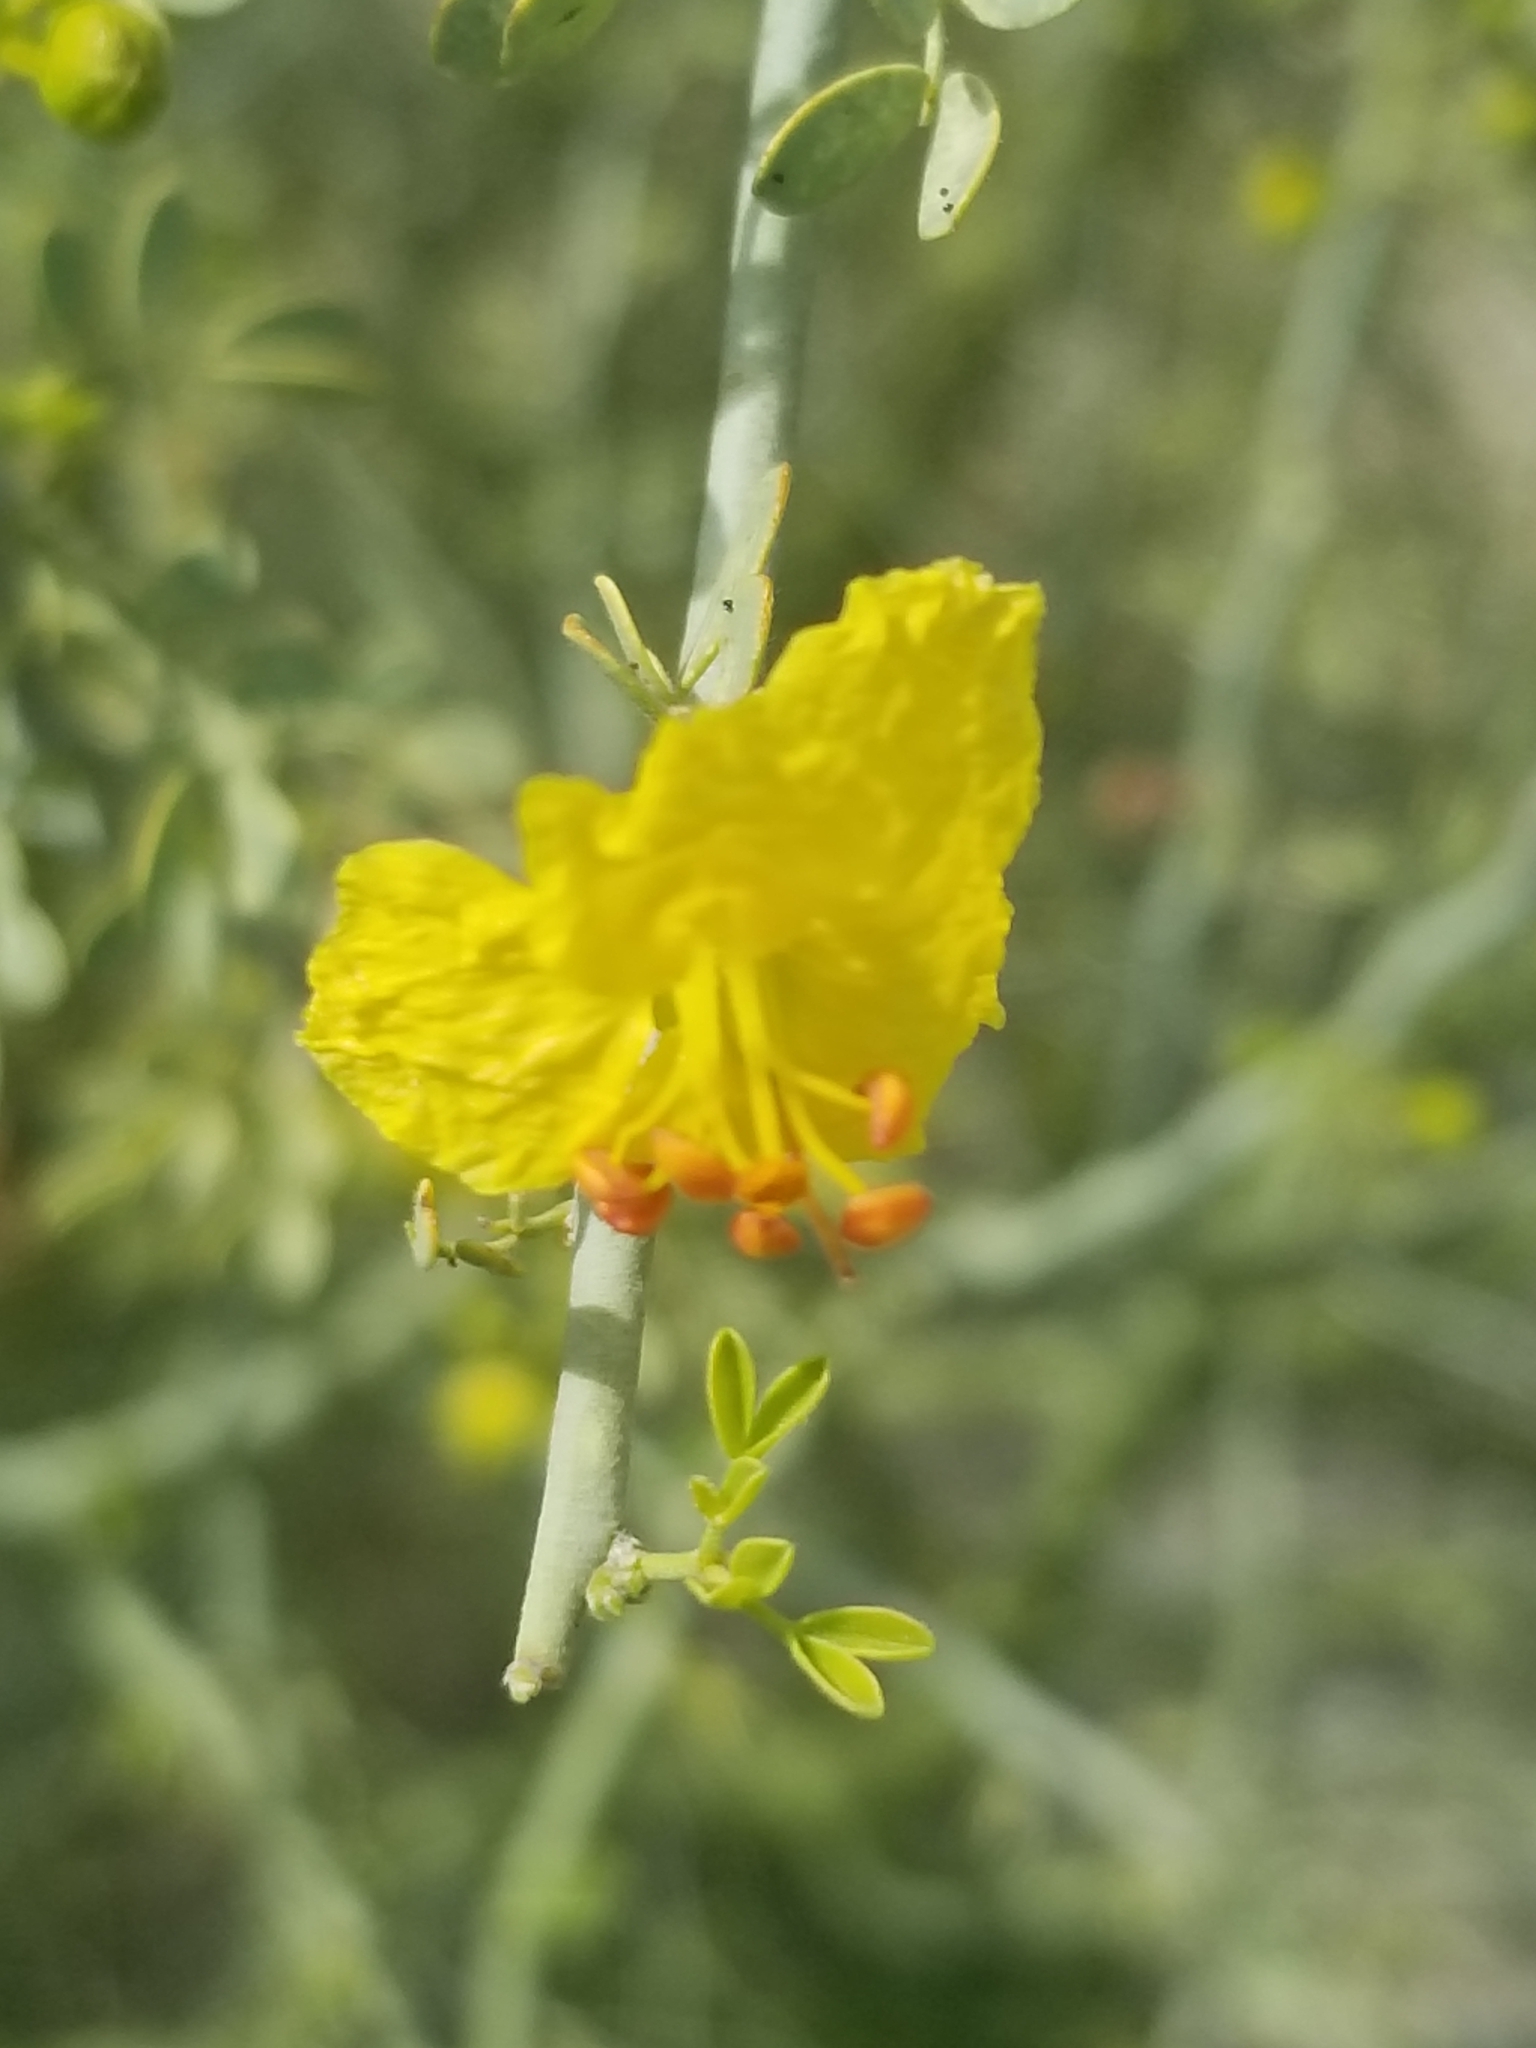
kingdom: Plantae
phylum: Tracheophyta
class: Magnoliopsida
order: Fabales
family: Fabaceae
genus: Parkinsonia
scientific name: Parkinsonia florida
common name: Blue paloverde
